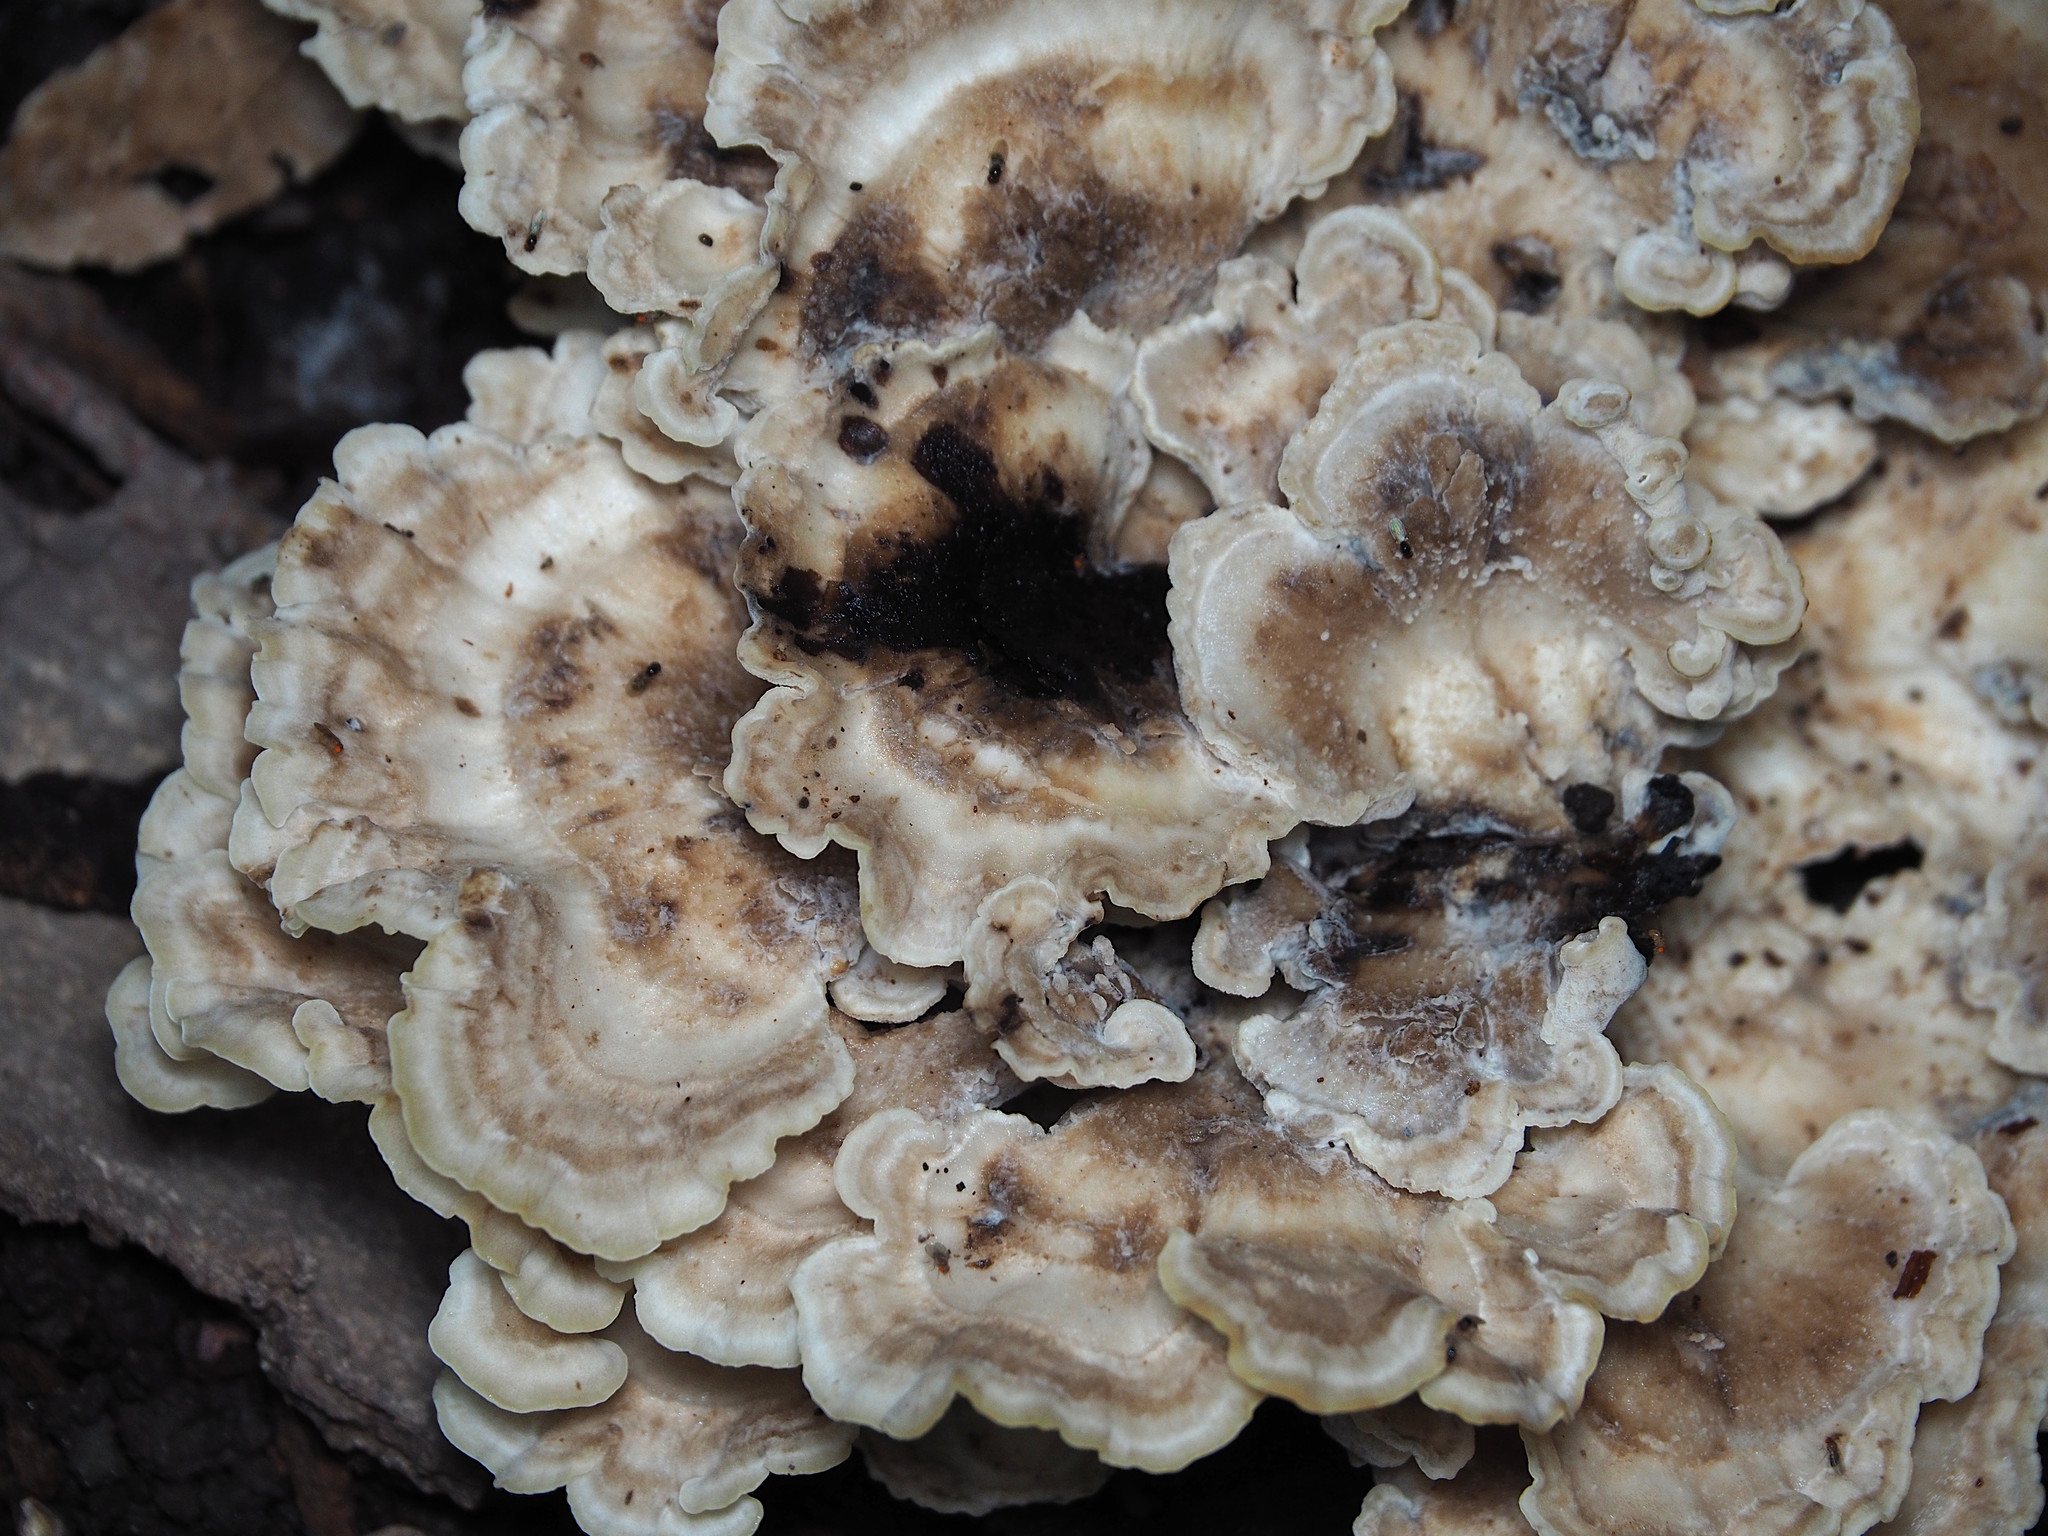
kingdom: Fungi
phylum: Basidiomycota
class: Agaricomycetes
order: Polyporales
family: Meripilaceae
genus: Meripilus
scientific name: Meripilus sumstinei
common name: Black-staining polypore
